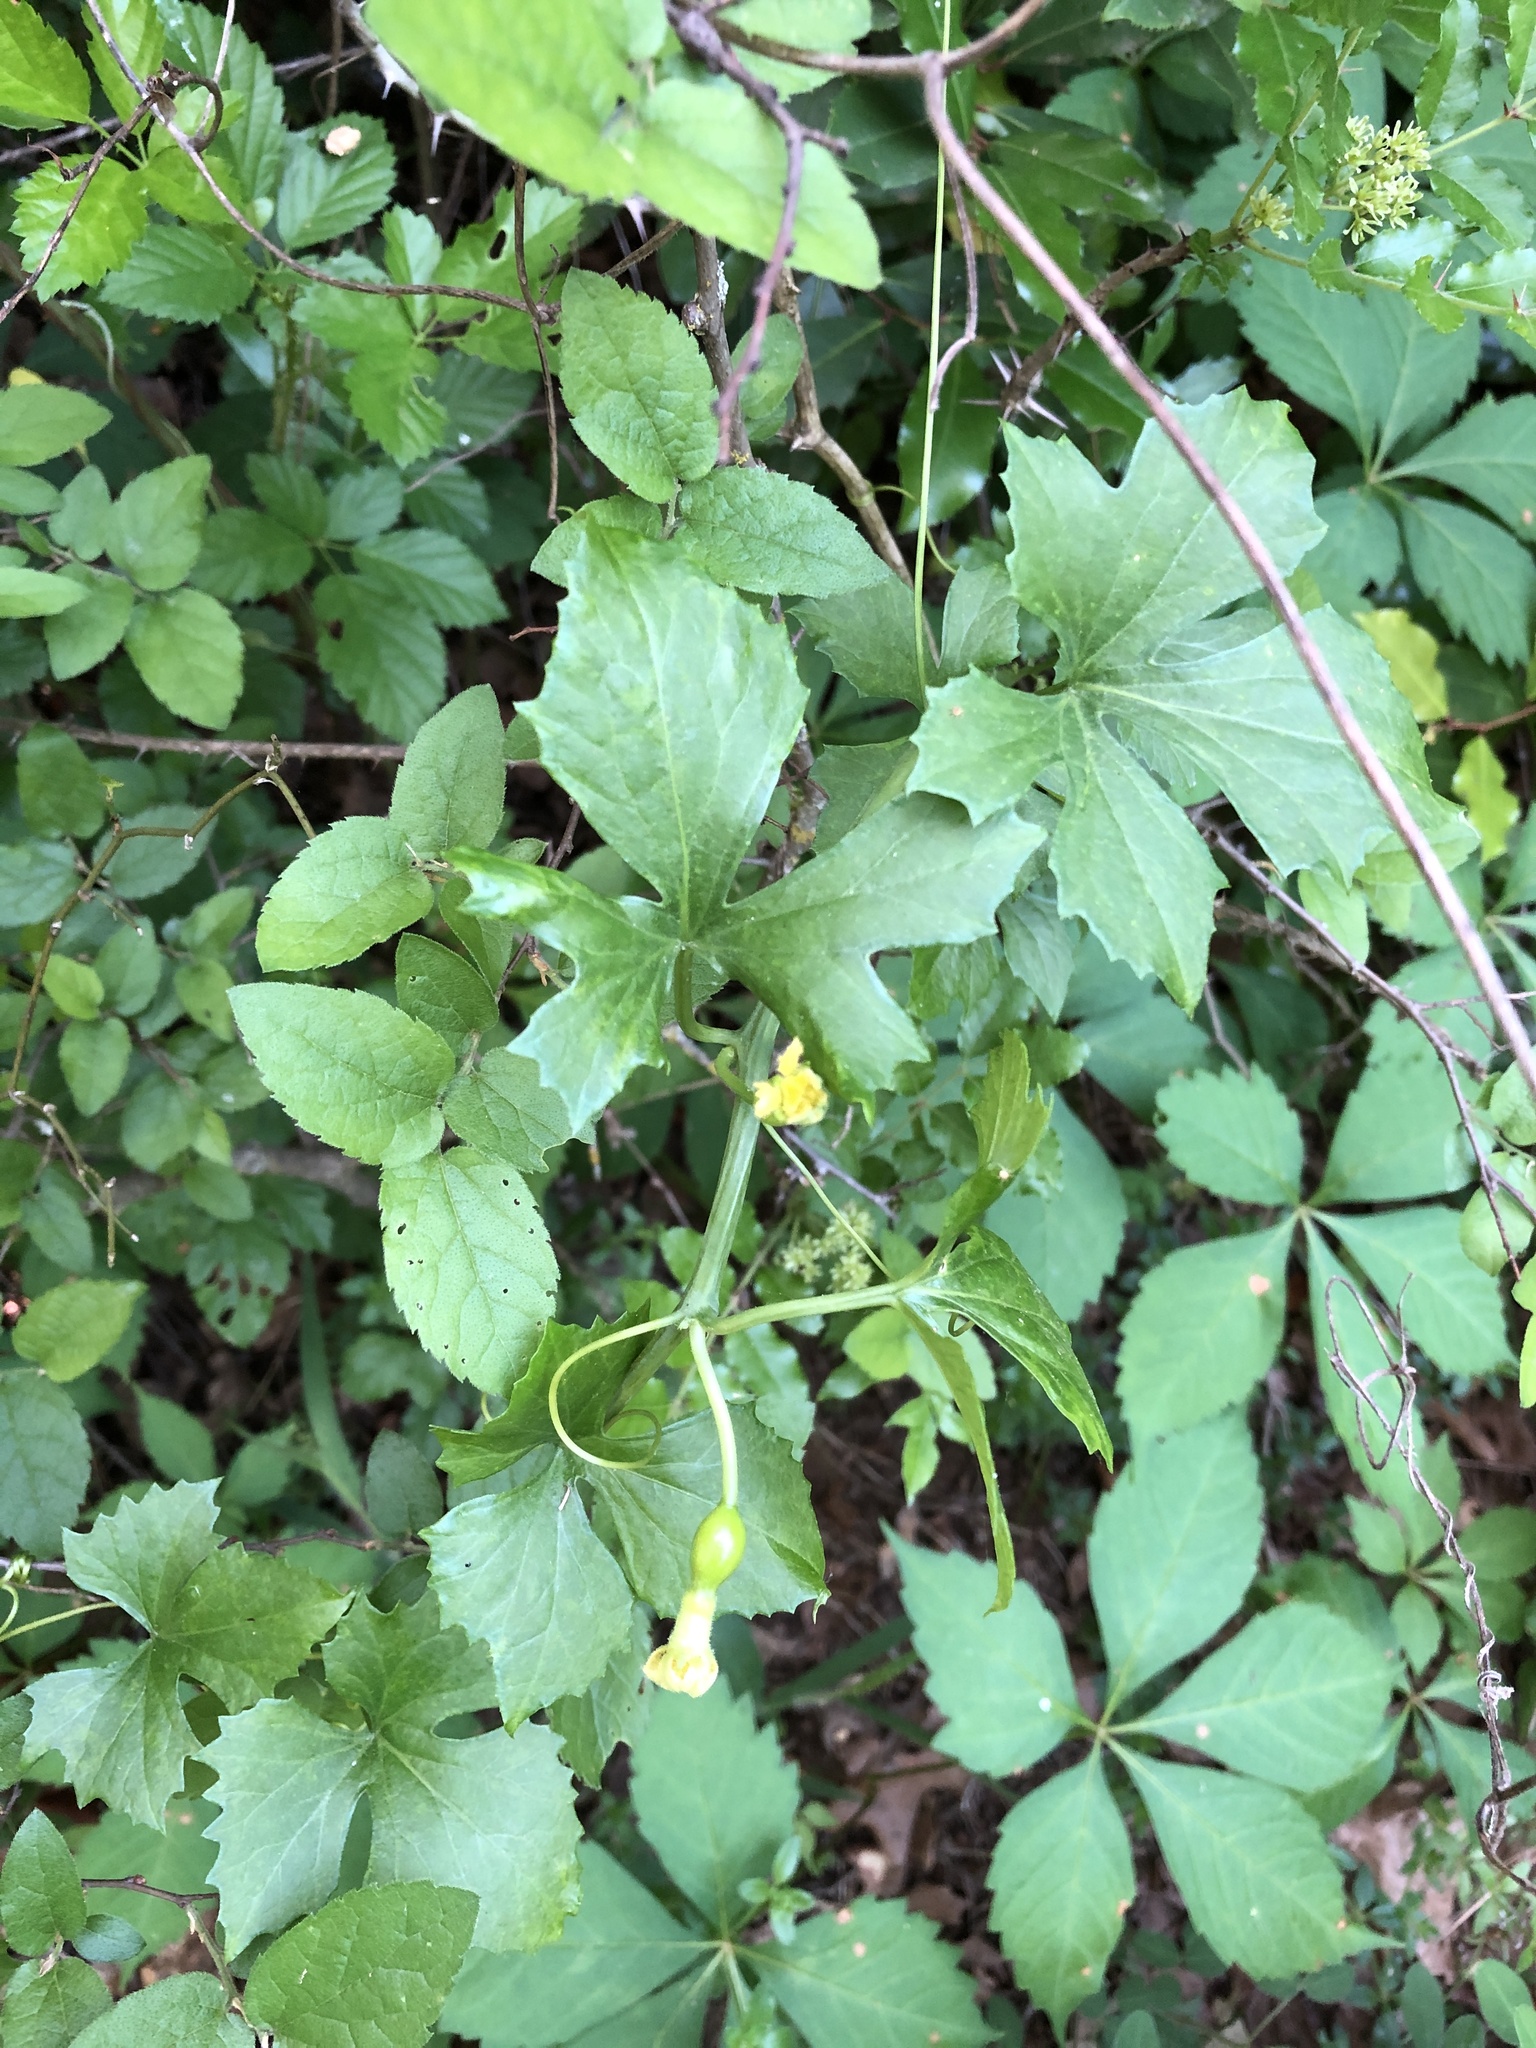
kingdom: Plantae
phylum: Tracheophyta
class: Magnoliopsida
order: Cucurbitales
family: Cucurbitaceae
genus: Ibervillea
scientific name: Ibervillea lindheimeri
